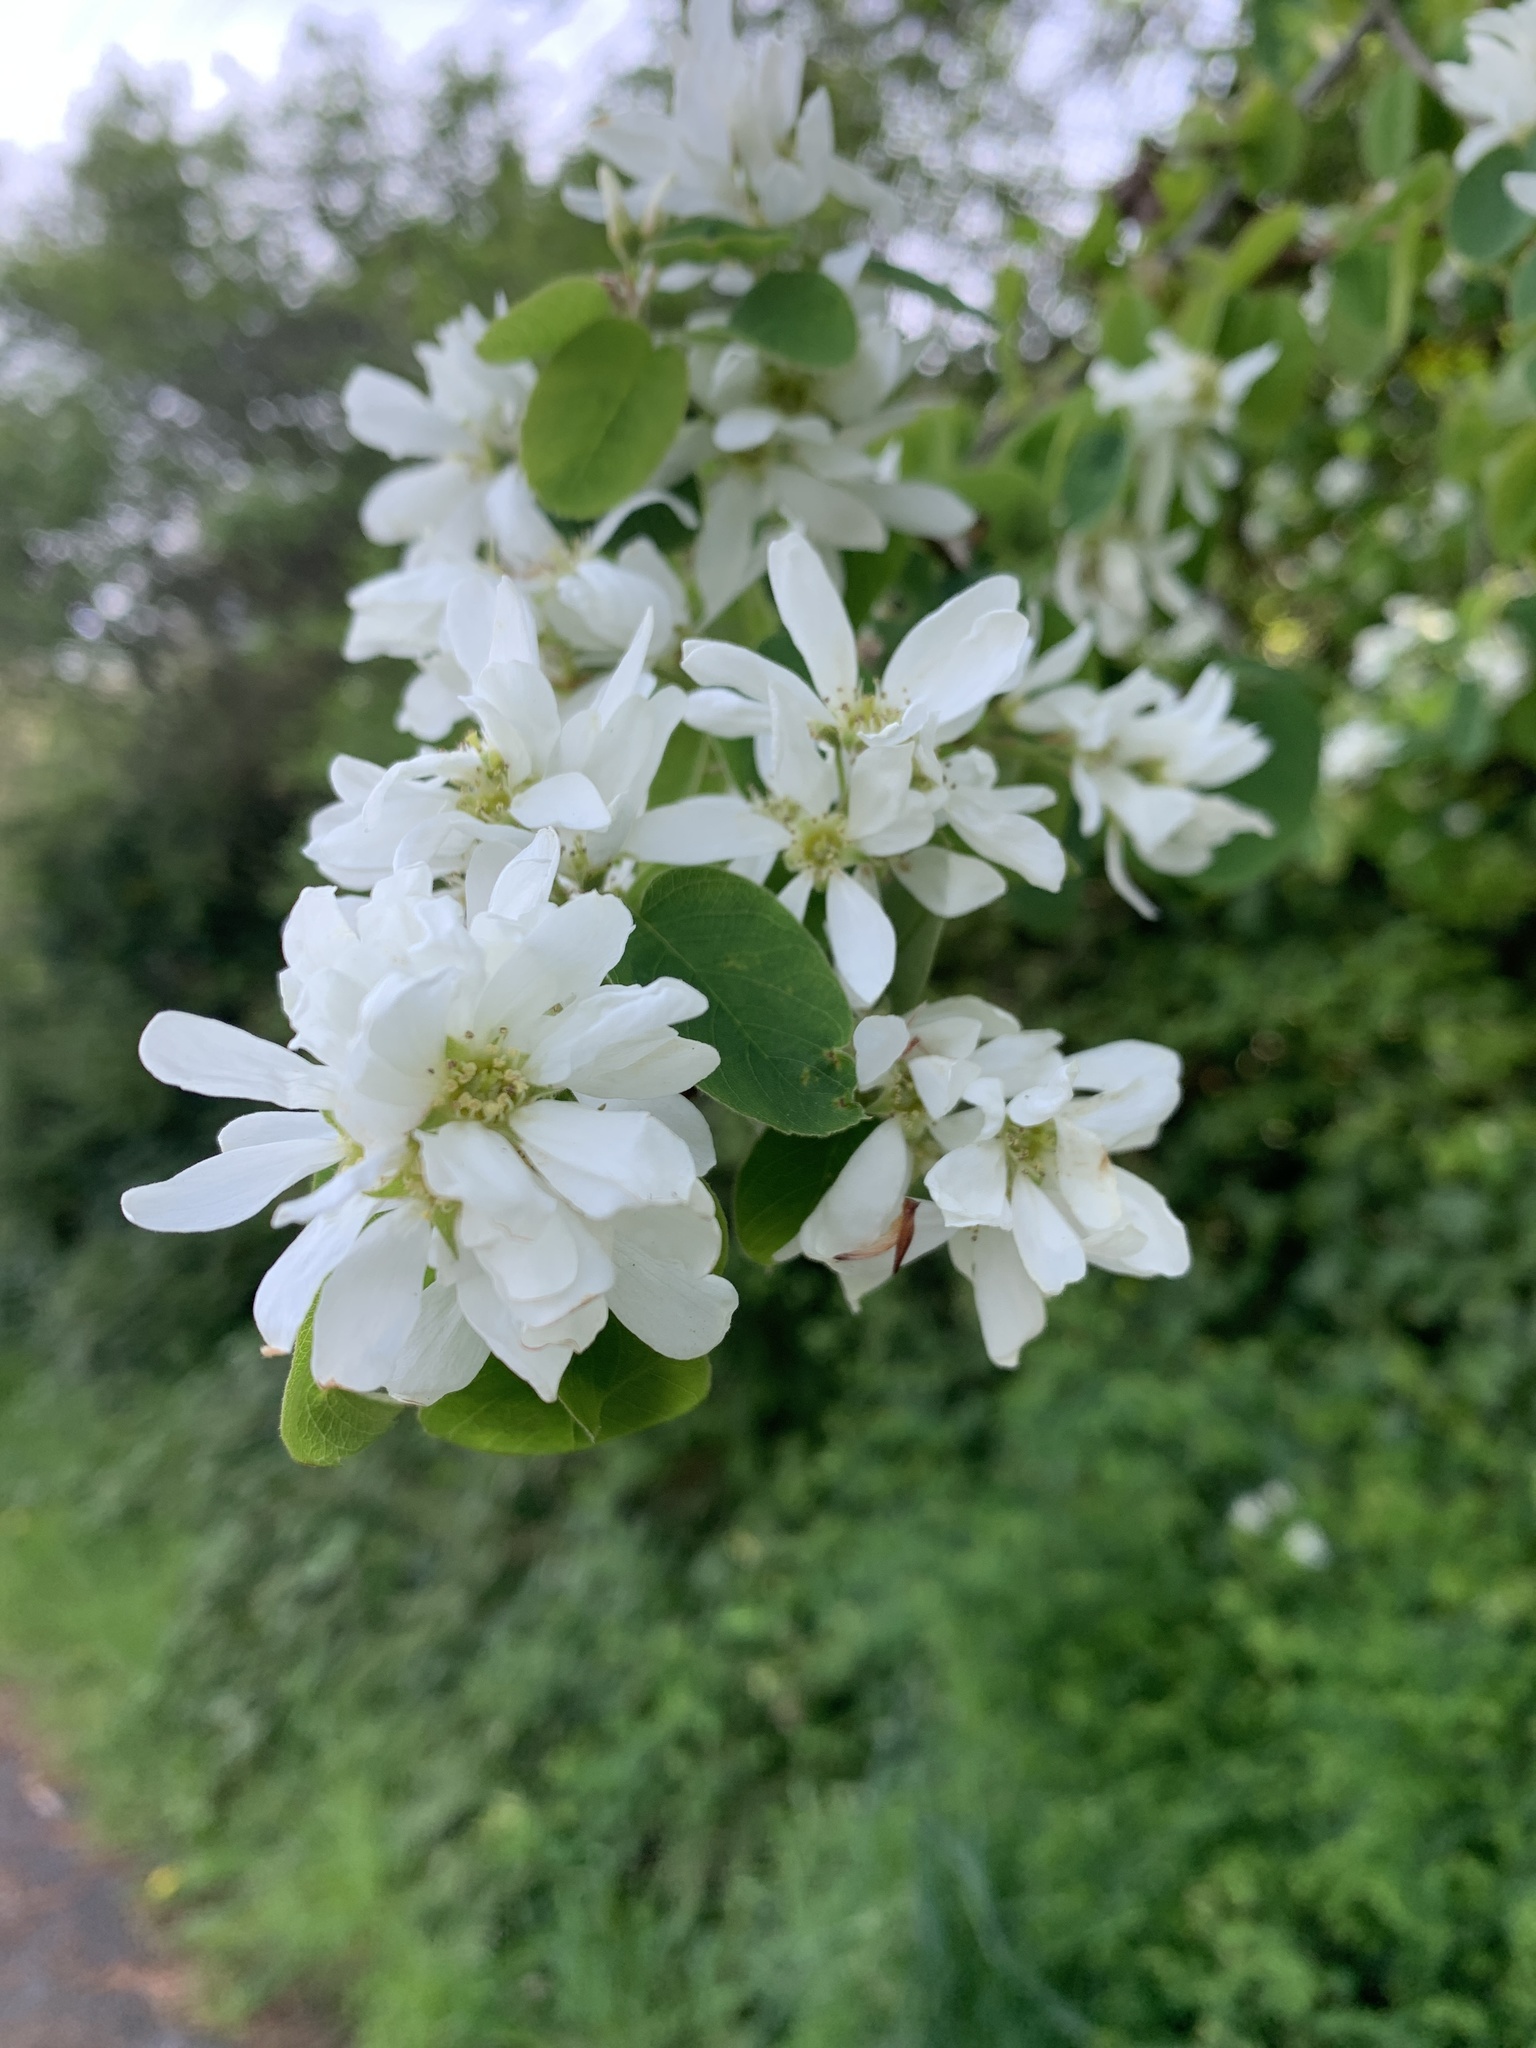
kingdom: Plantae
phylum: Tracheophyta
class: Magnoliopsida
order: Rosales
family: Rosaceae
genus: Amelanchier
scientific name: Amelanchier alnifolia
